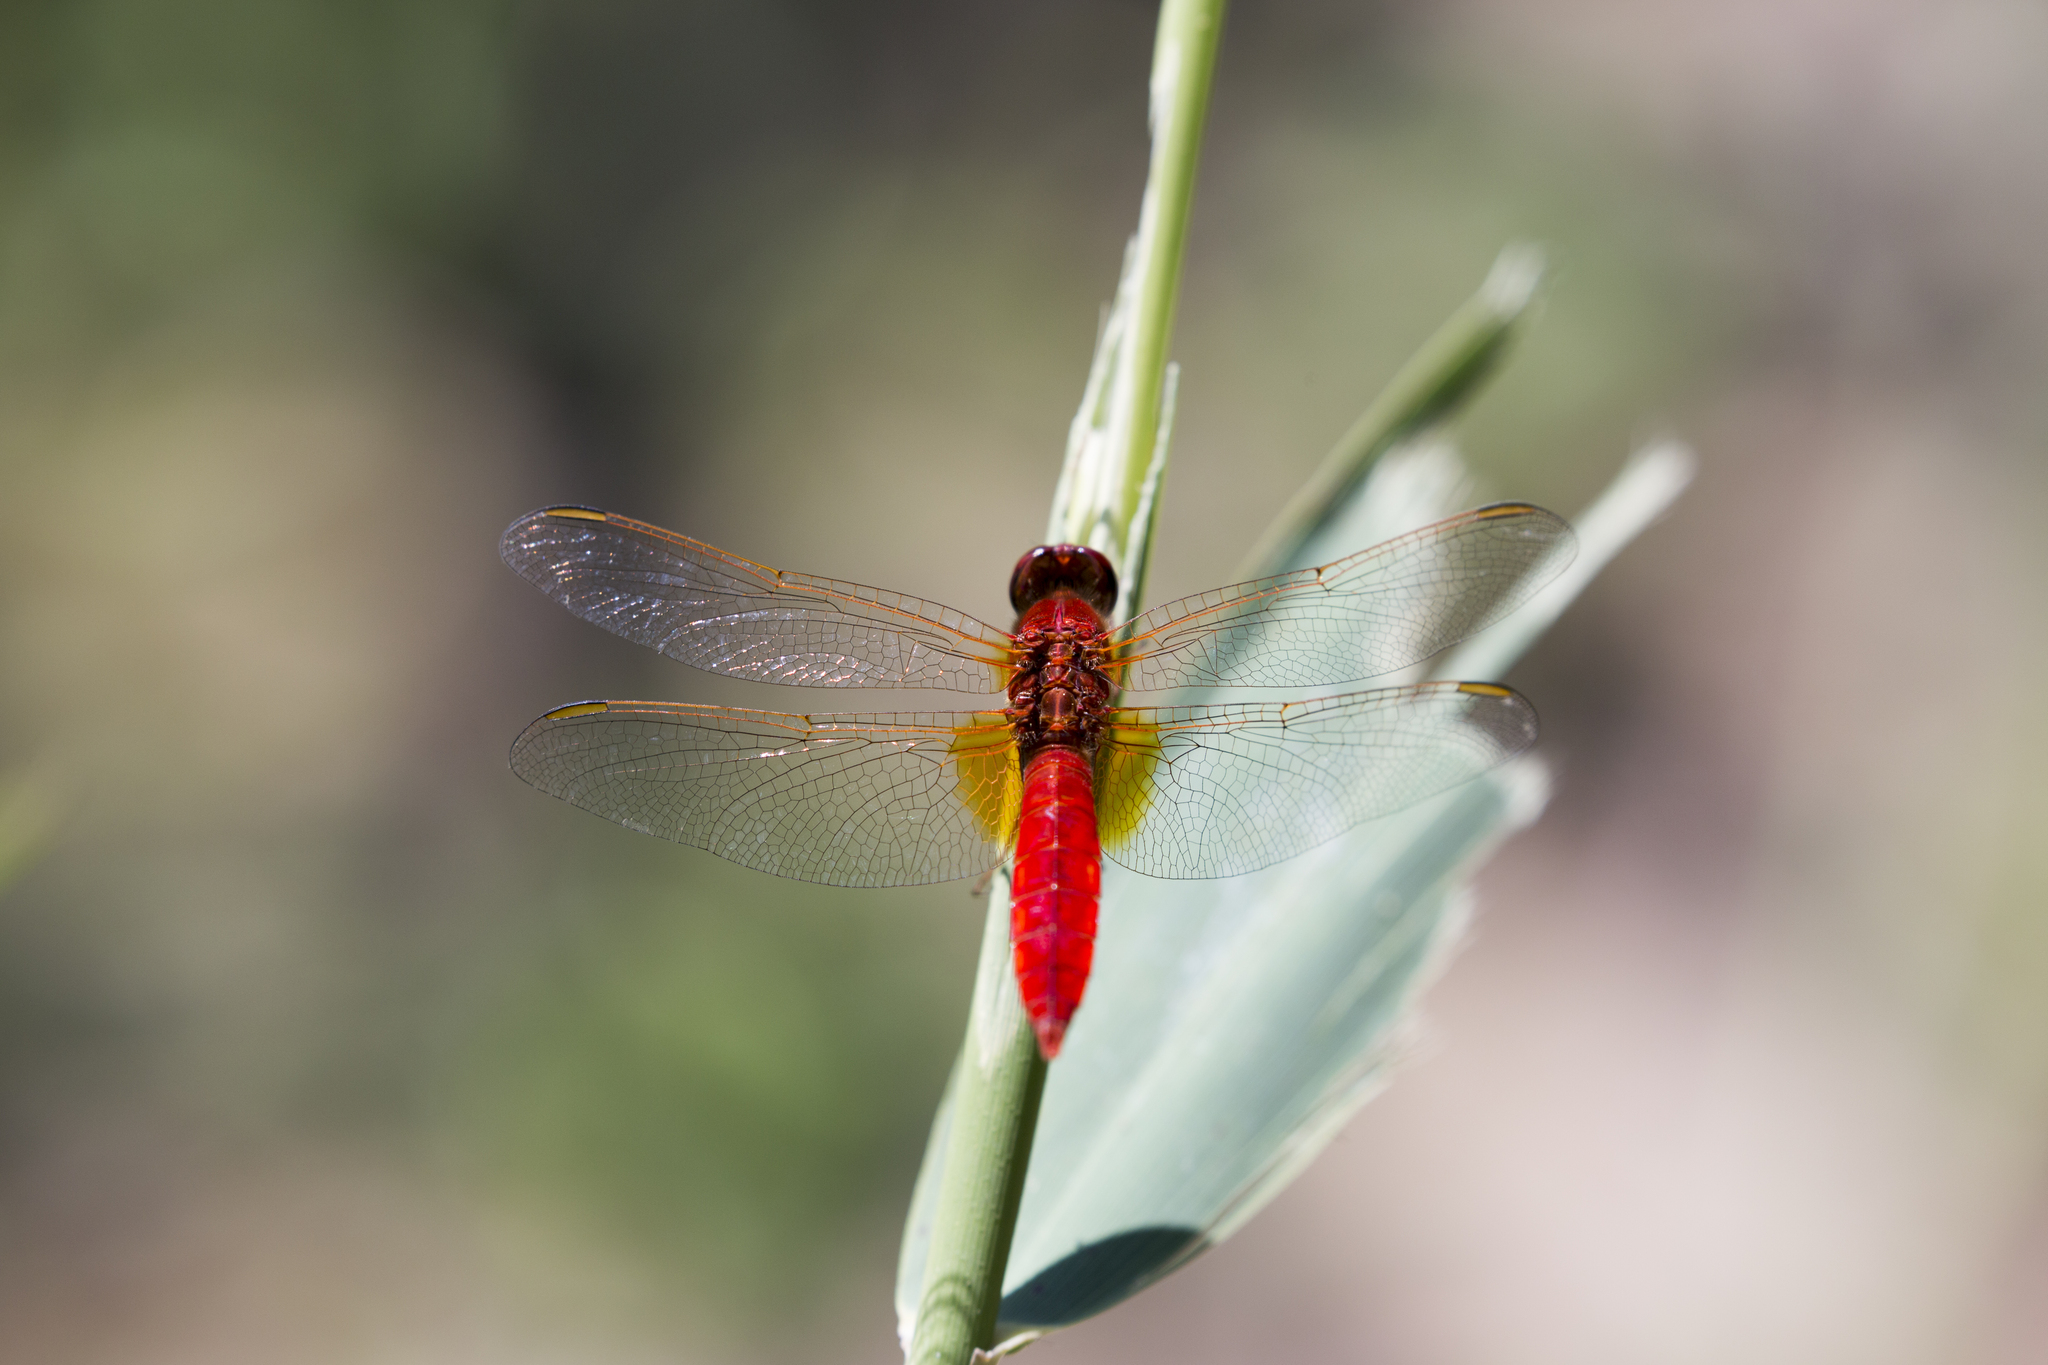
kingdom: Animalia
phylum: Arthropoda
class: Insecta
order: Odonata
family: Libellulidae
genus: Crocothemis
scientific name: Crocothemis erythraea
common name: Scarlet dragonfly
